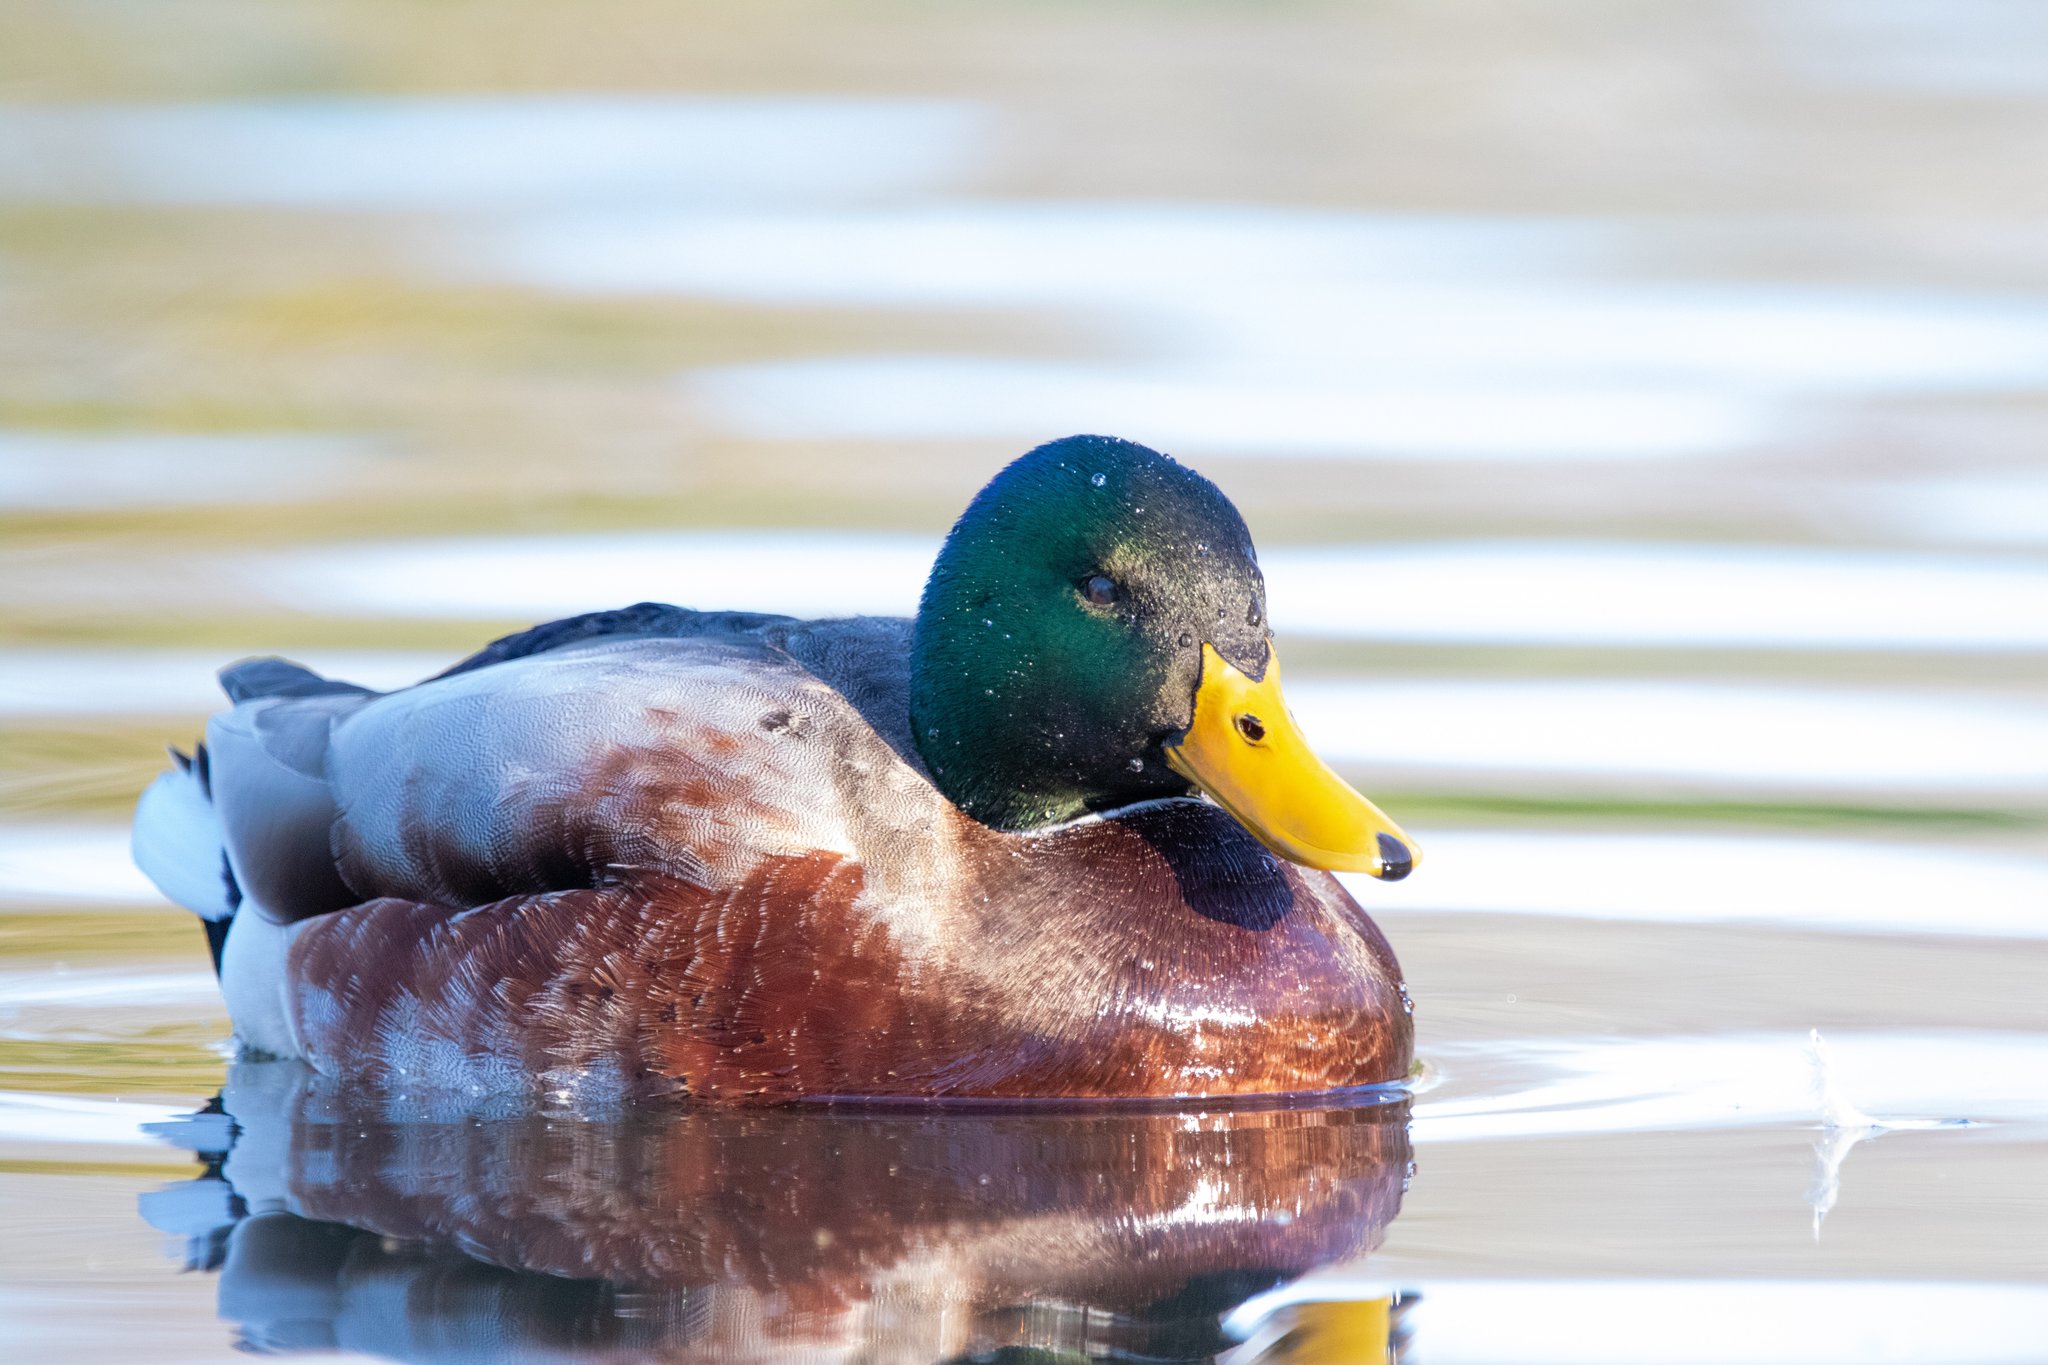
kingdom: Animalia
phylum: Chordata
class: Aves
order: Anseriformes
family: Anatidae
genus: Anas
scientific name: Anas platyrhynchos
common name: Mallard
